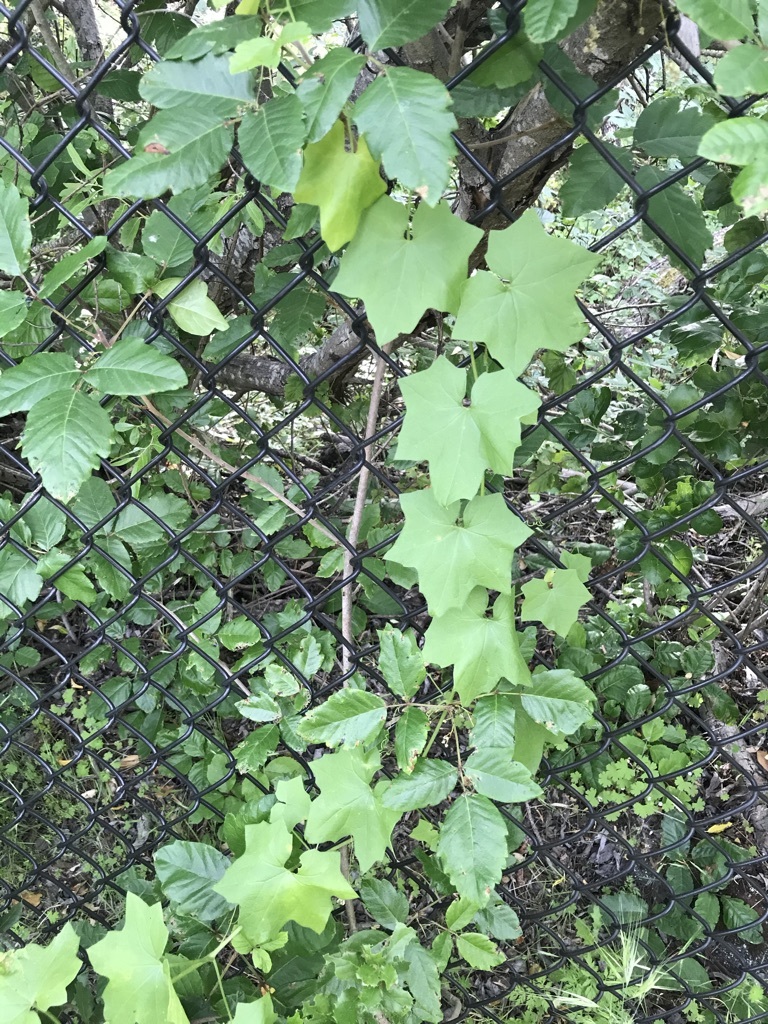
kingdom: Plantae
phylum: Tracheophyta
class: Magnoliopsida
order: Cucurbitales
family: Cucurbitaceae
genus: Marah
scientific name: Marah fabacea
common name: California manroot
